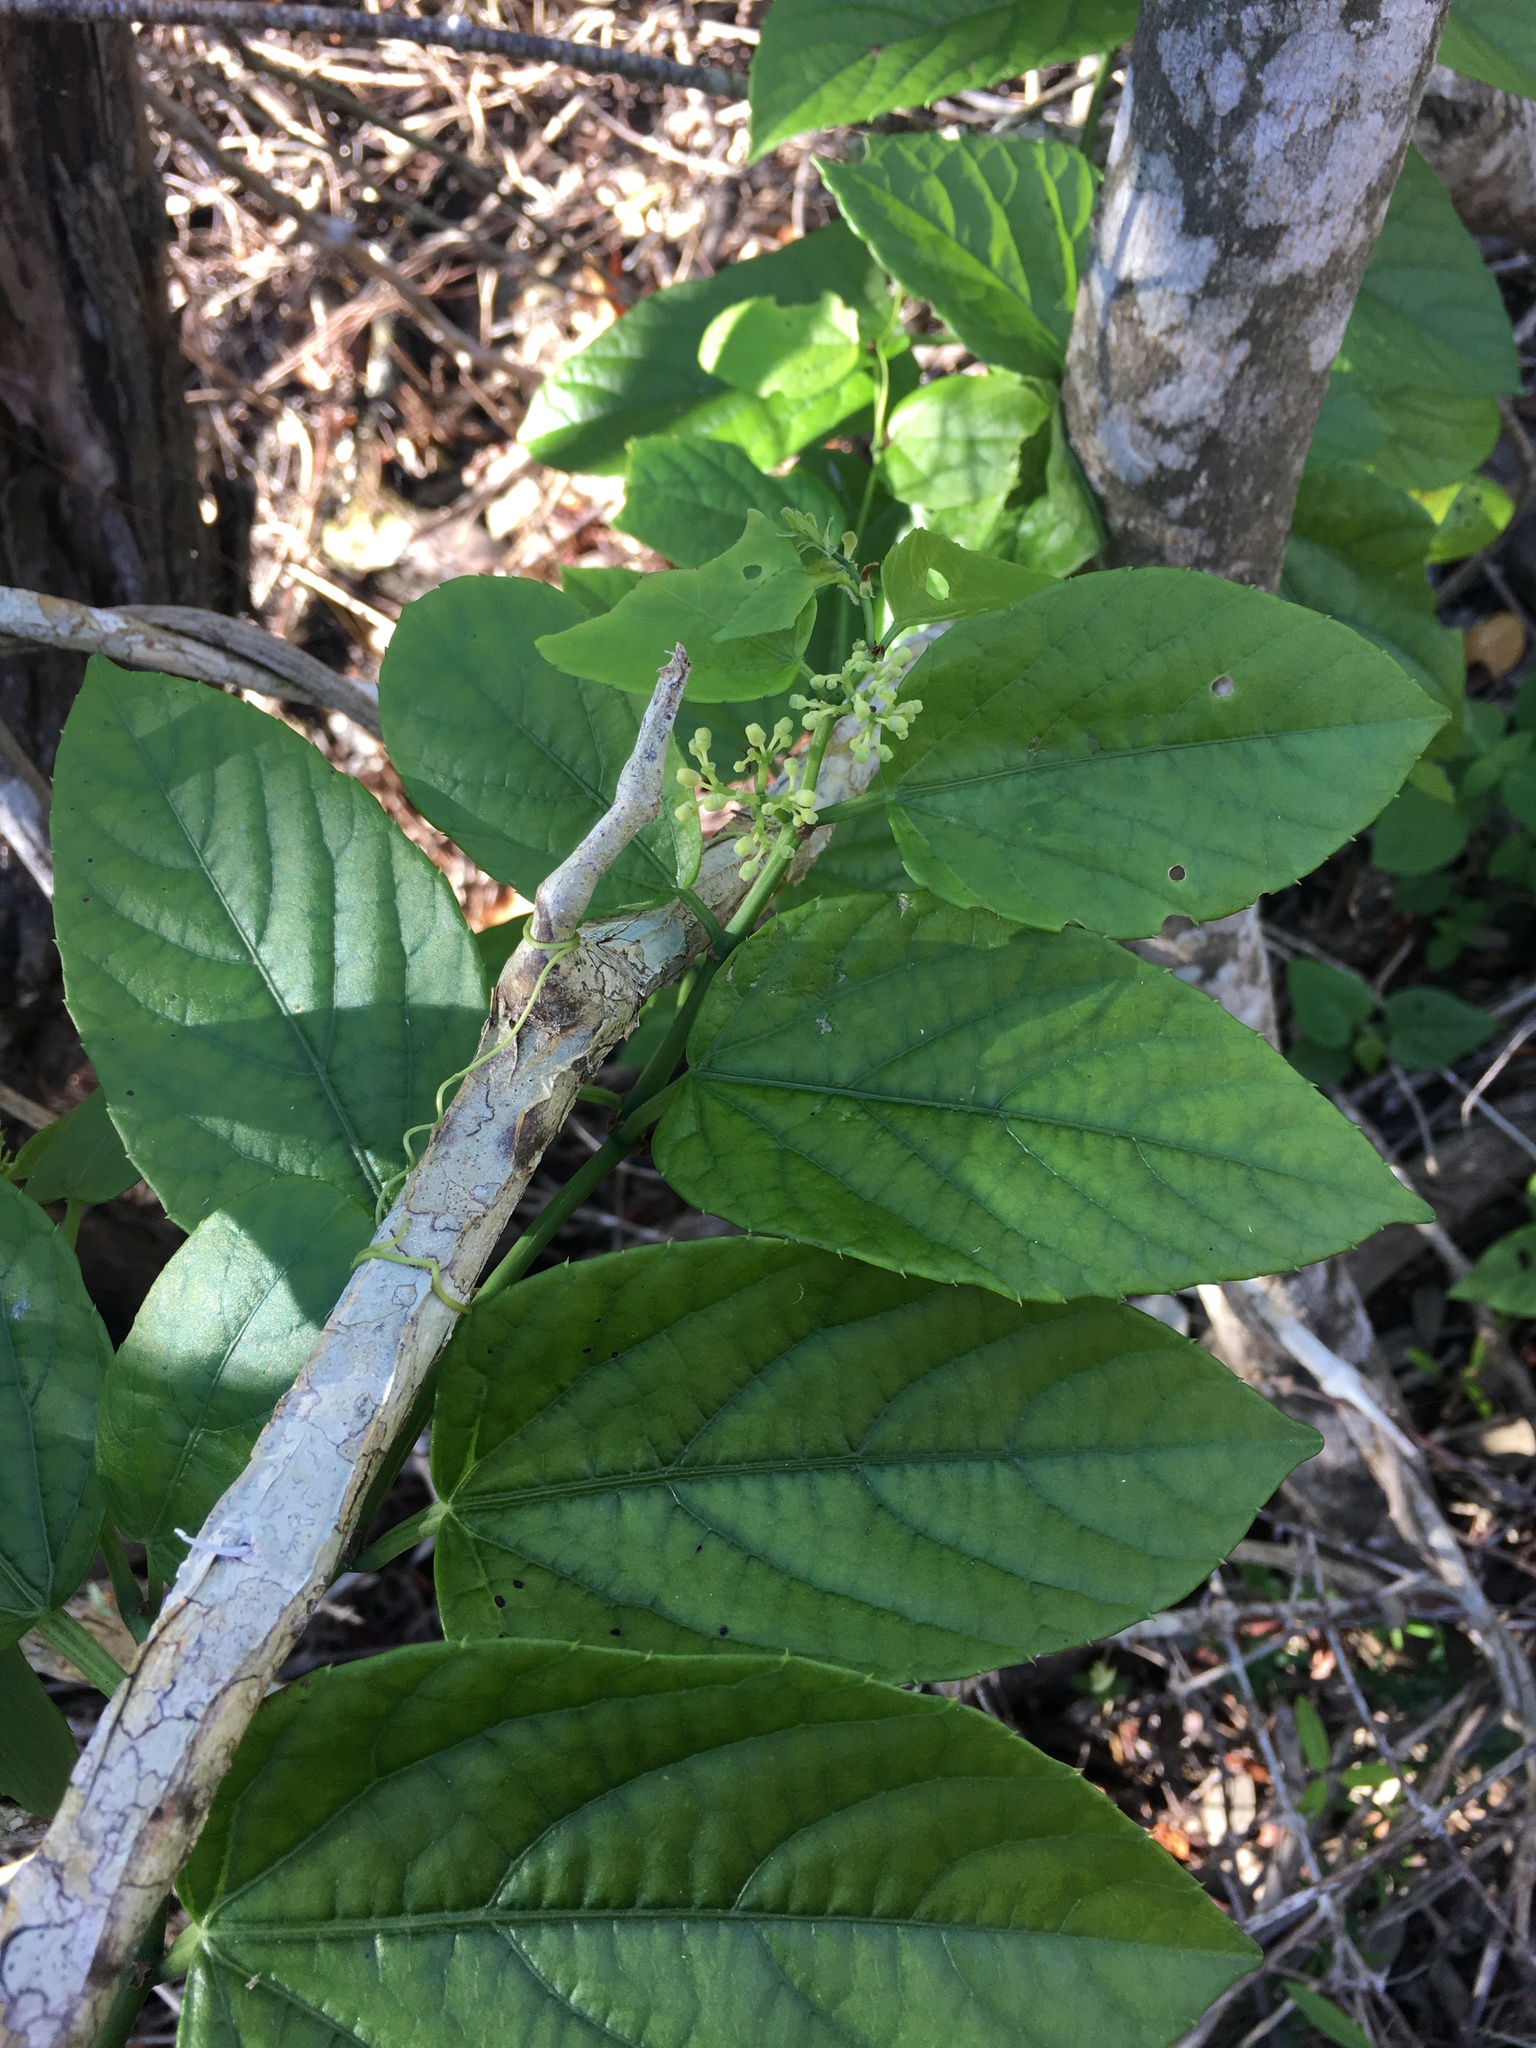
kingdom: Plantae
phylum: Tracheophyta
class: Magnoliopsida
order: Vitales
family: Vitaceae
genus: Cissus
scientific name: Cissus verticillata
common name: Princess vine
